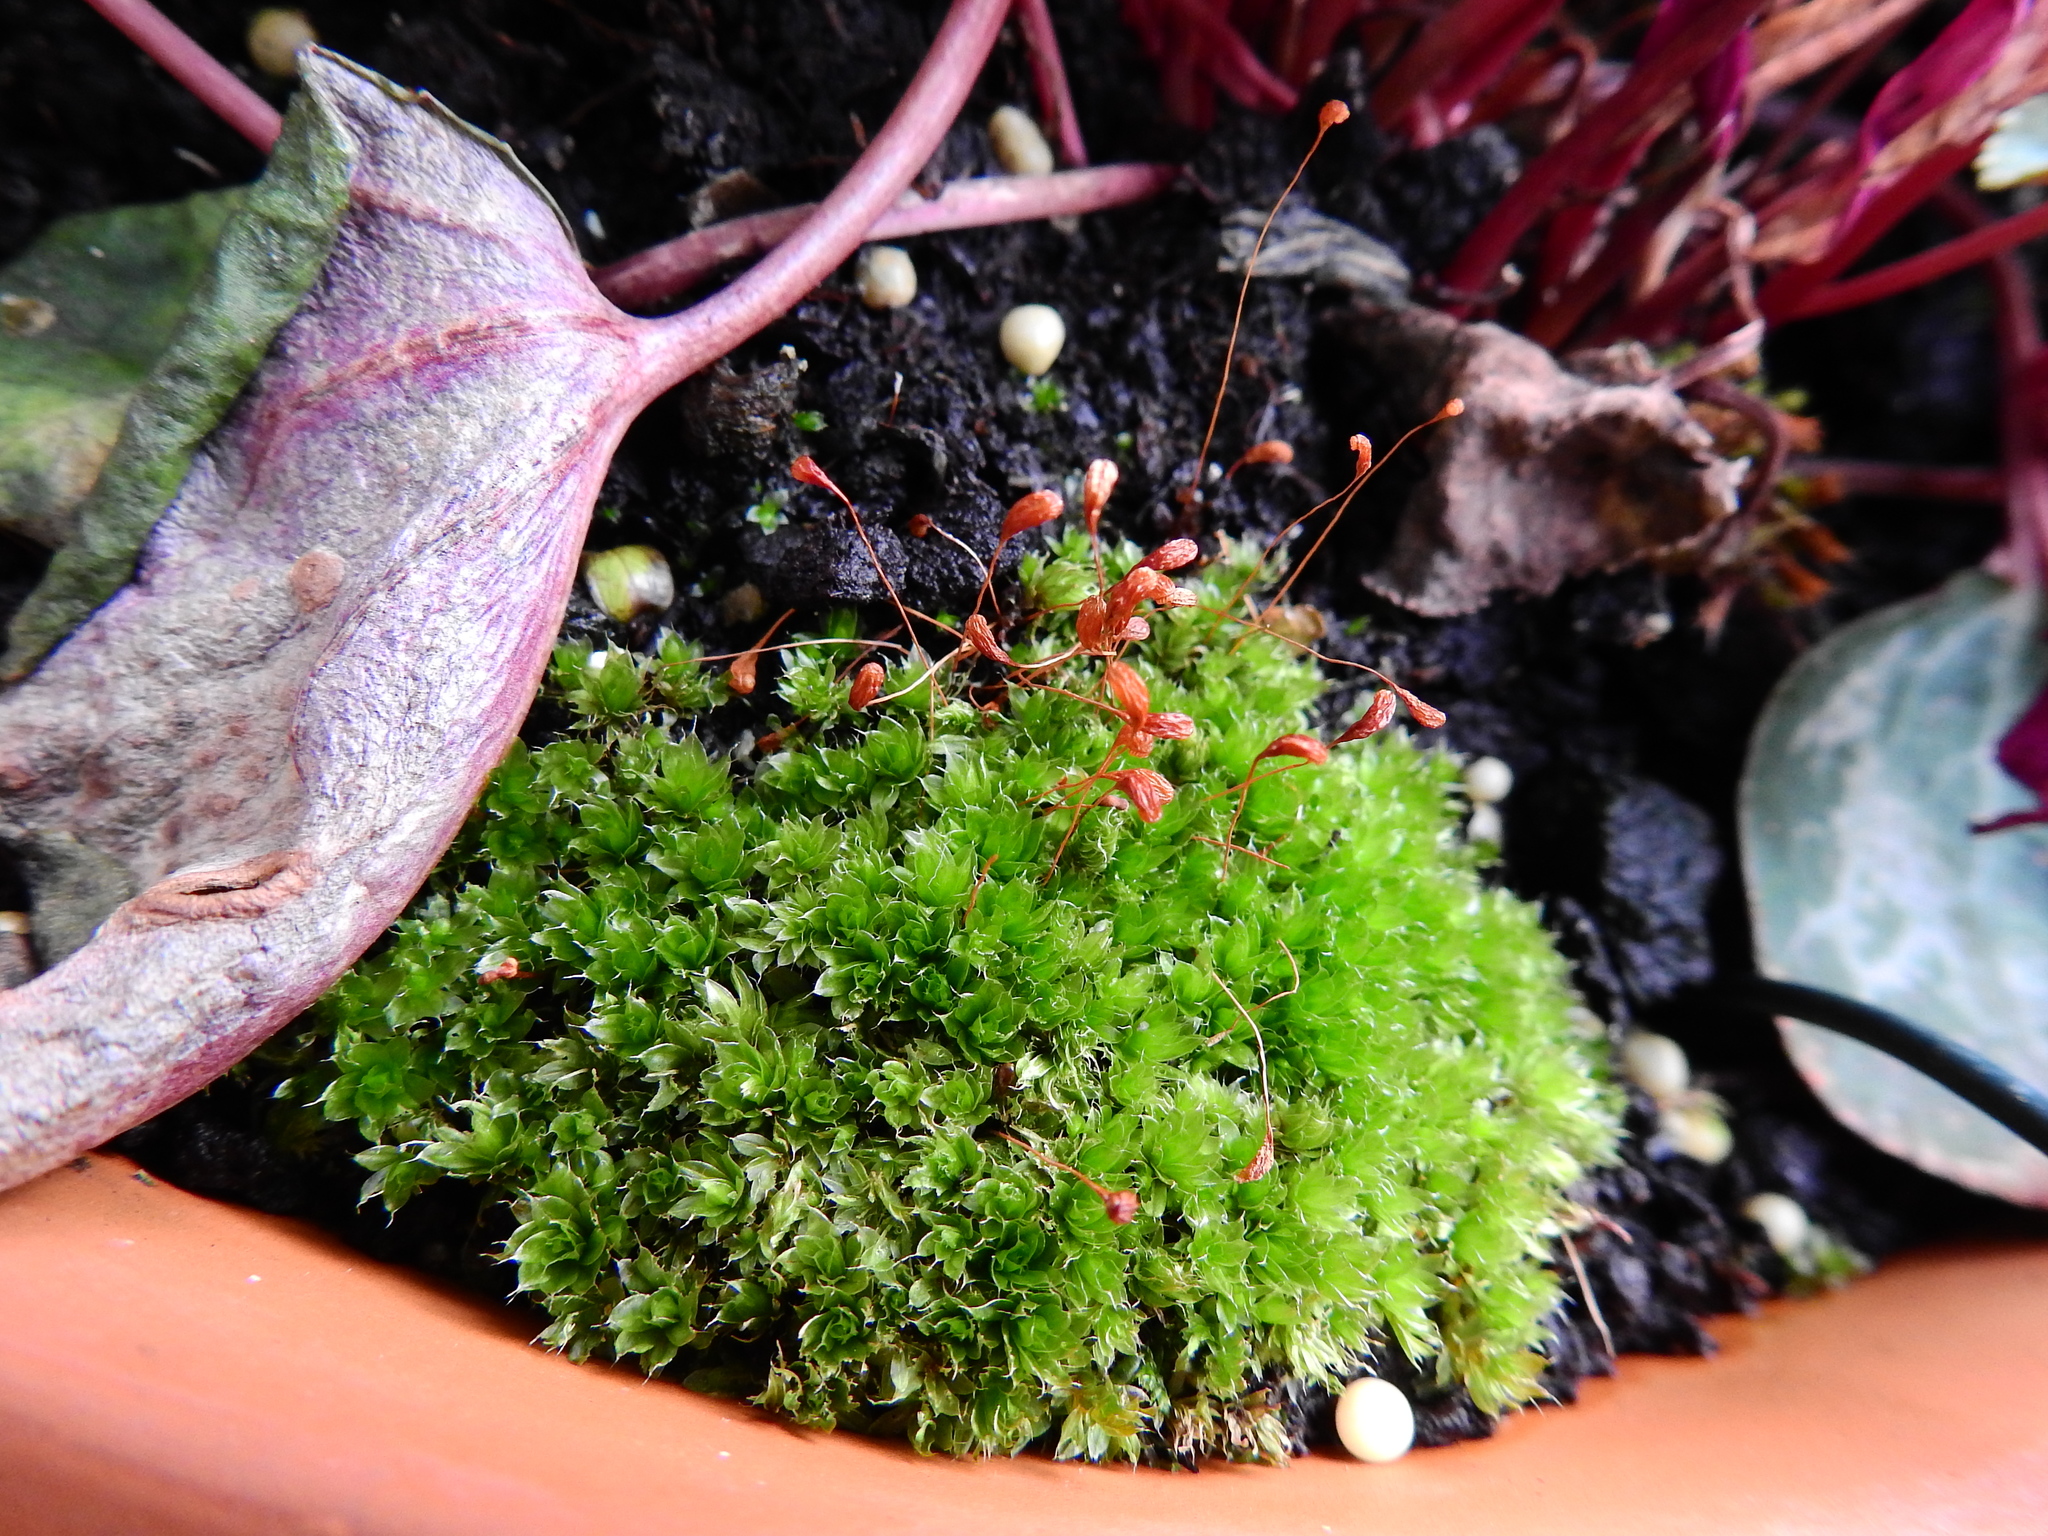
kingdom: Plantae
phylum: Bryophyta
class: Bryopsida
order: Bryales
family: Bryaceae
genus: Rosulabryum
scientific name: Rosulabryum capillare
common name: Capillary thread-moss
